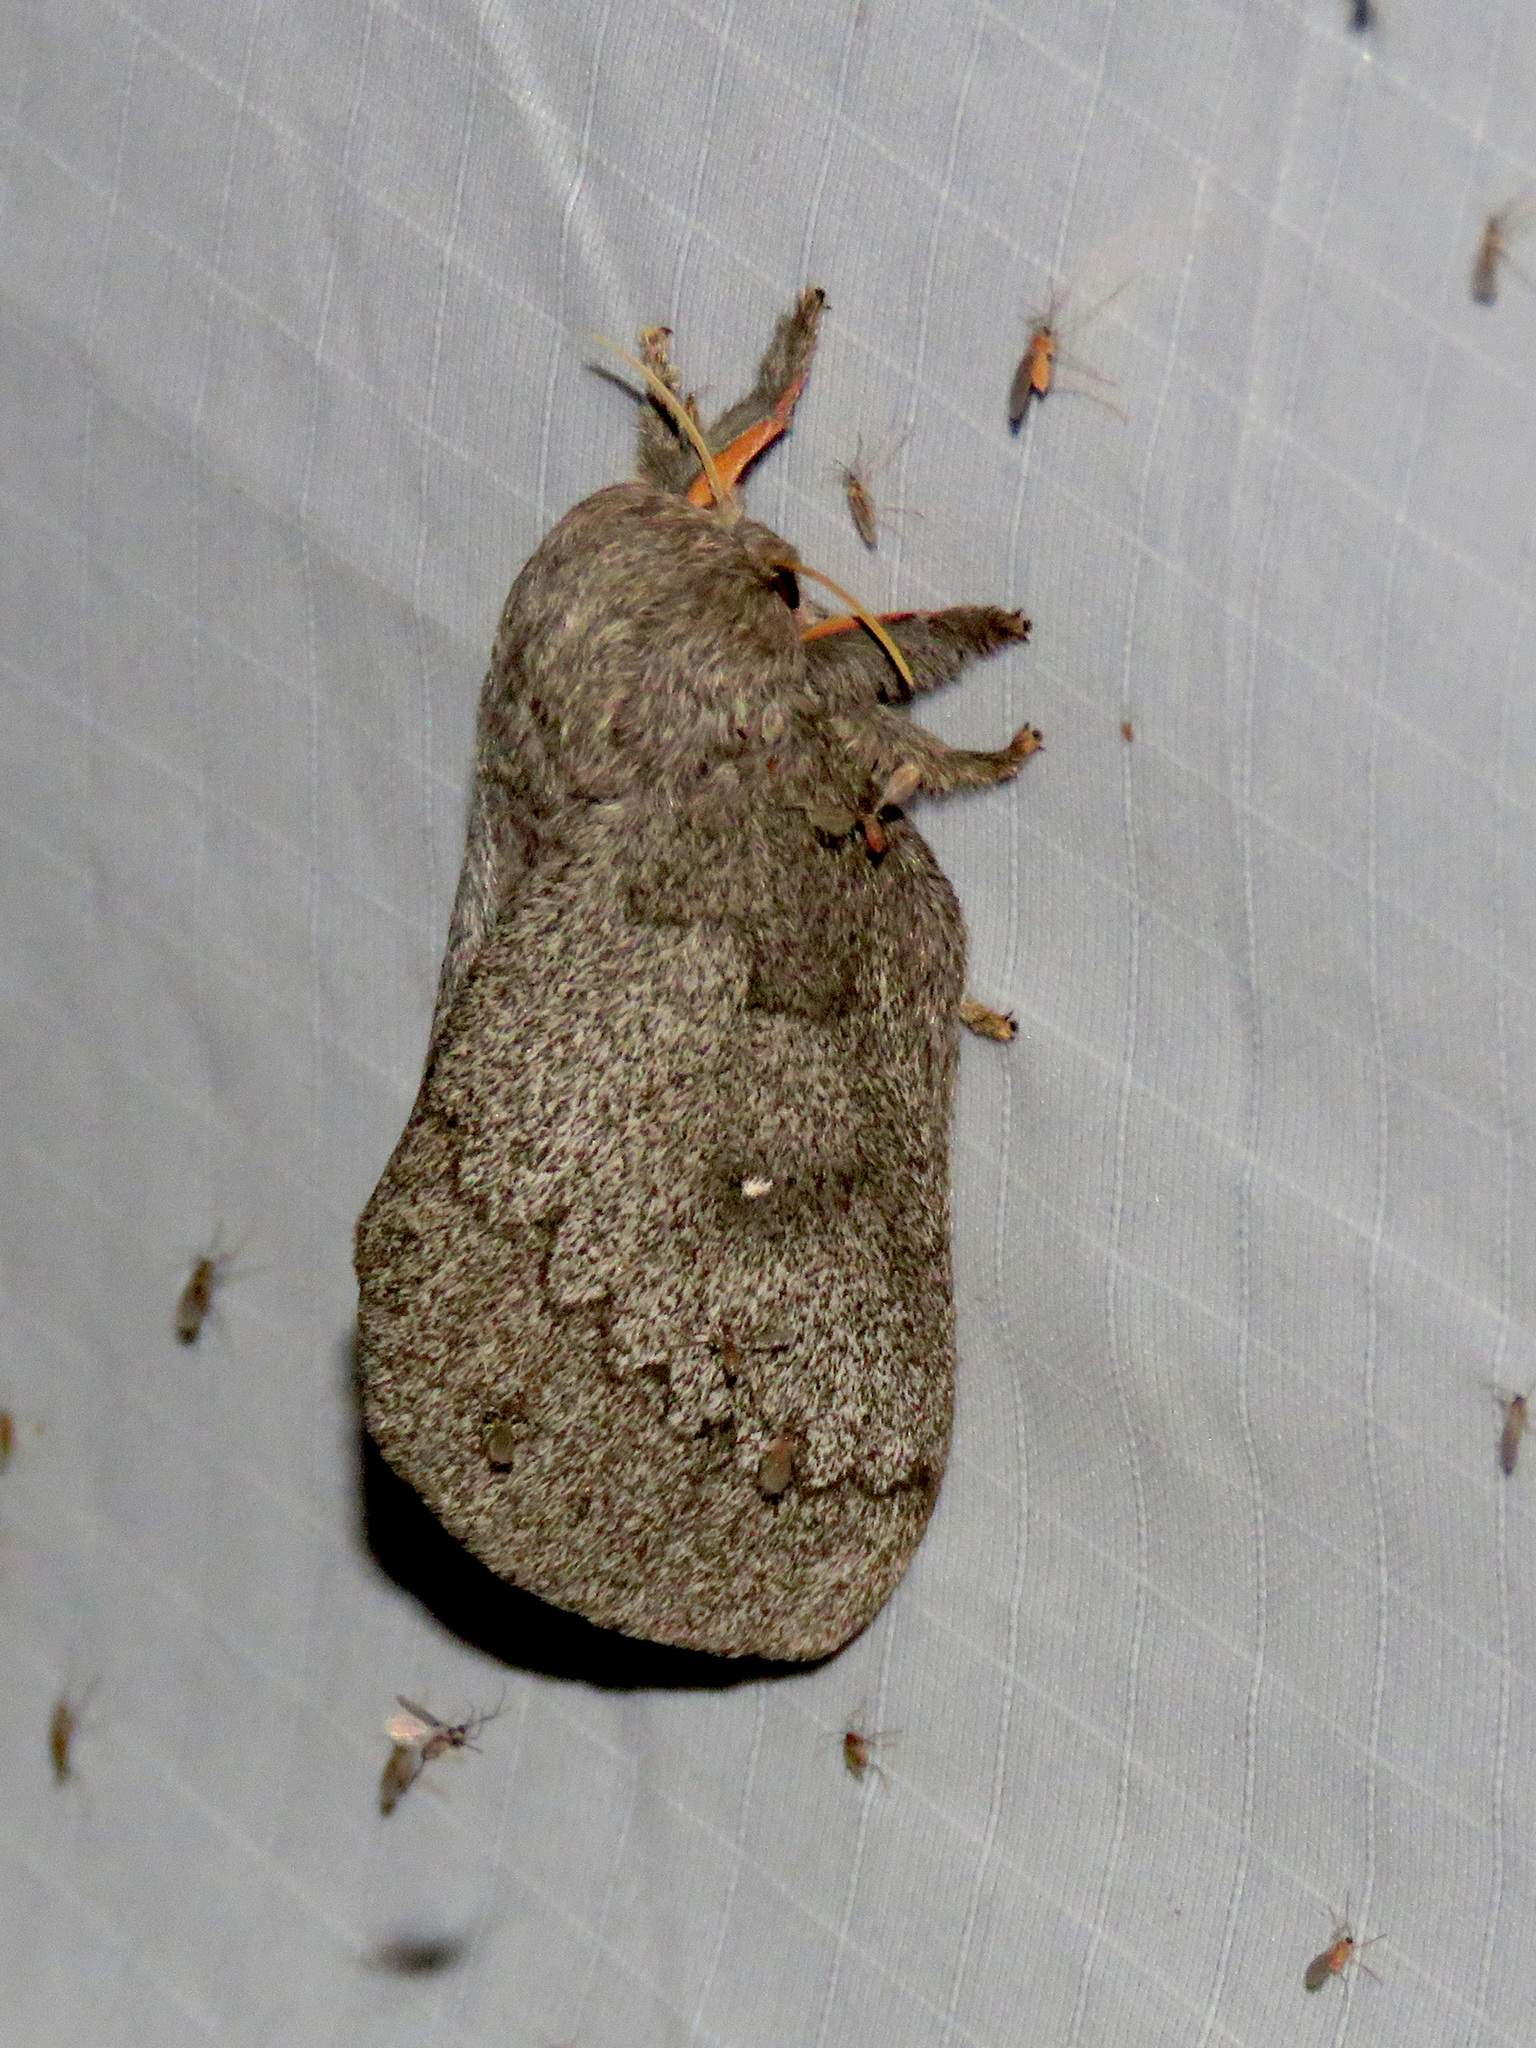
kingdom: Animalia
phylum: Arthropoda
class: Insecta
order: Lepidoptera
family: Saturniidae
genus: Syssphinx
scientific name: Syssphinx hubbardi
